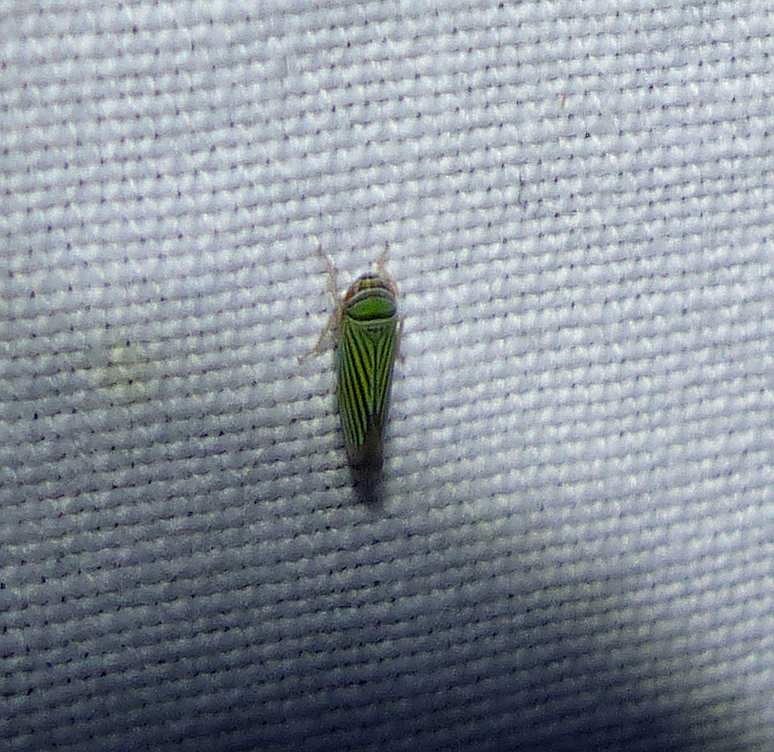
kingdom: Animalia
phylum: Arthropoda
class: Insecta
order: Hemiptera
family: Cicadellidae
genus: Tylozygus
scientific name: Tylozygus bifidus
